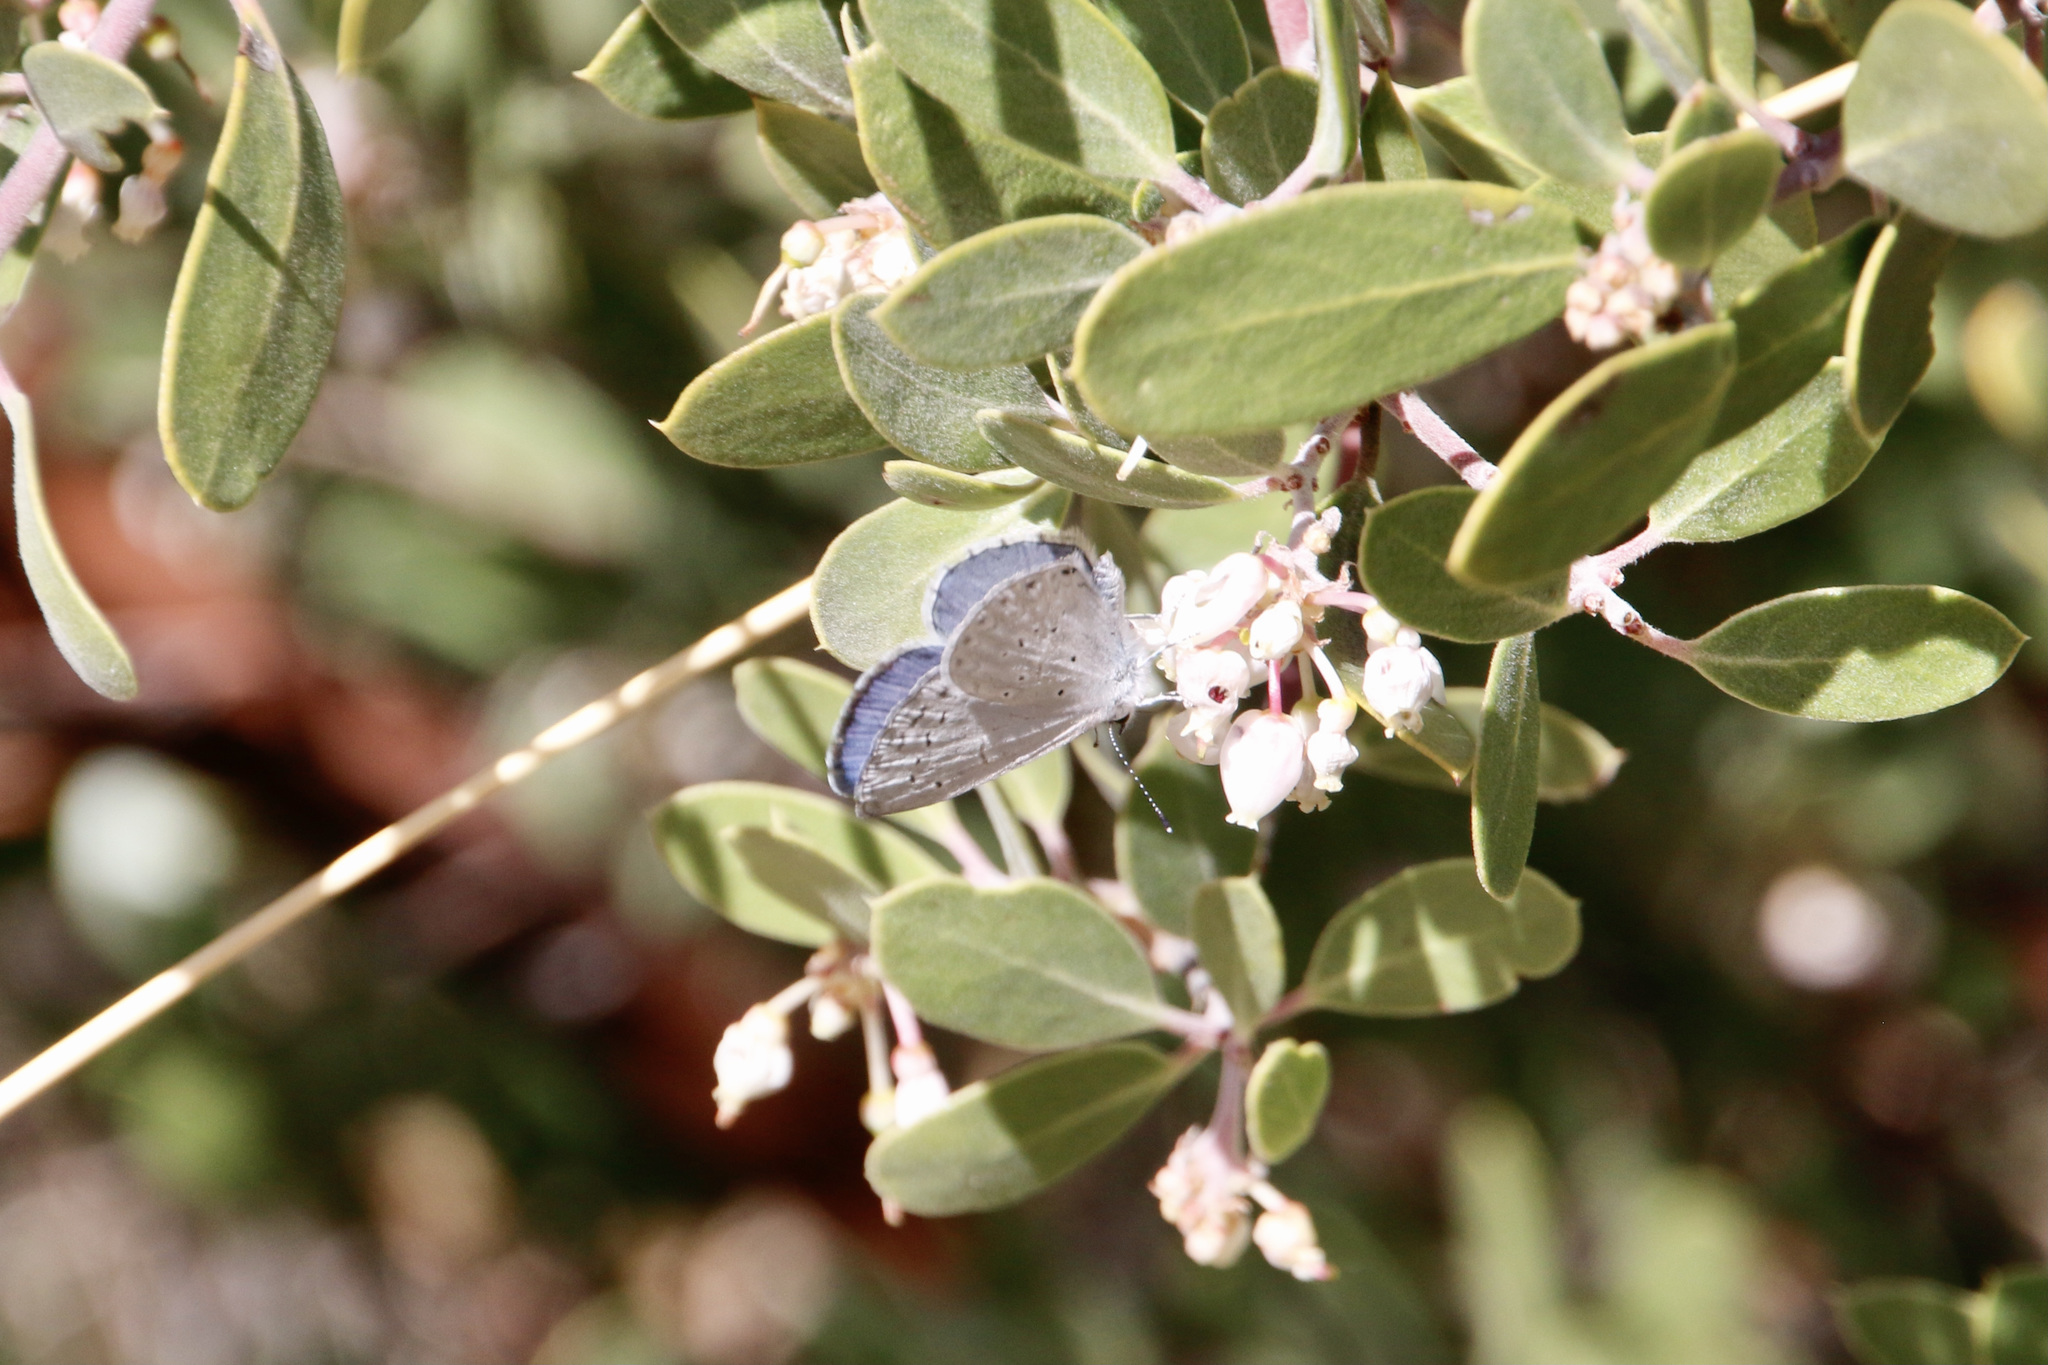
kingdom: Animalia
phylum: Arthropoda
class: Insecta
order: Lepidoptera
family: Lycaenidae
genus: Celastrina
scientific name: Celastrina ladon
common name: Spring azure
